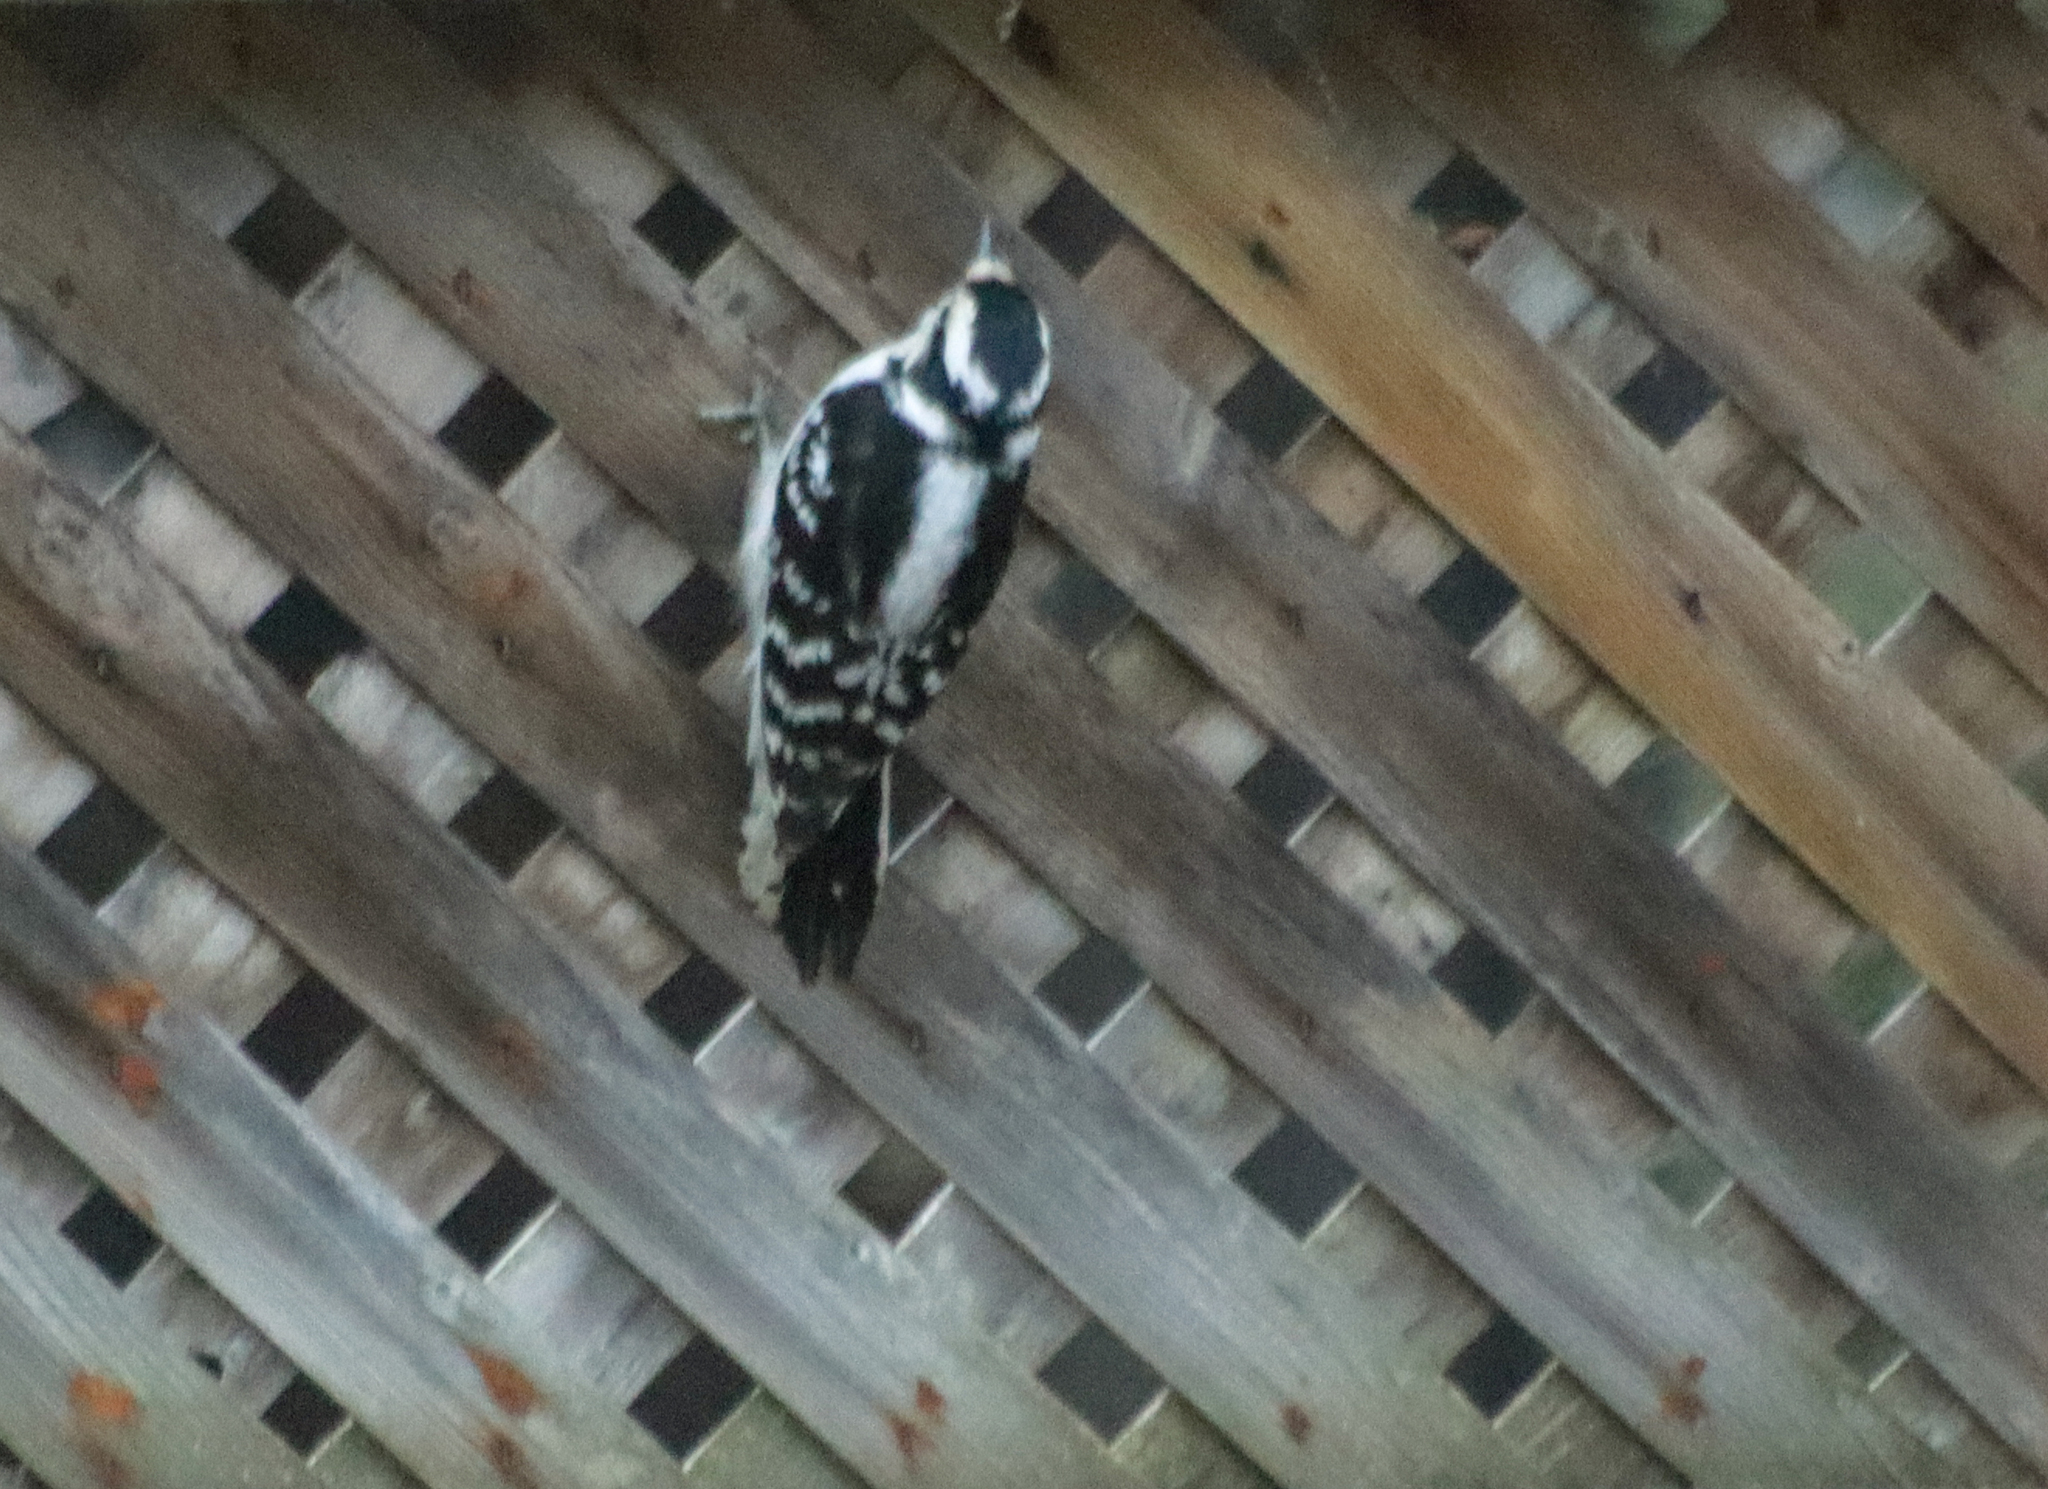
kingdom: Animalia
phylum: Chordata
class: Aves
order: Piciformes
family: Picidae
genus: Dryobates
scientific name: Dryobates pubescens
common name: Downy woodpecker
